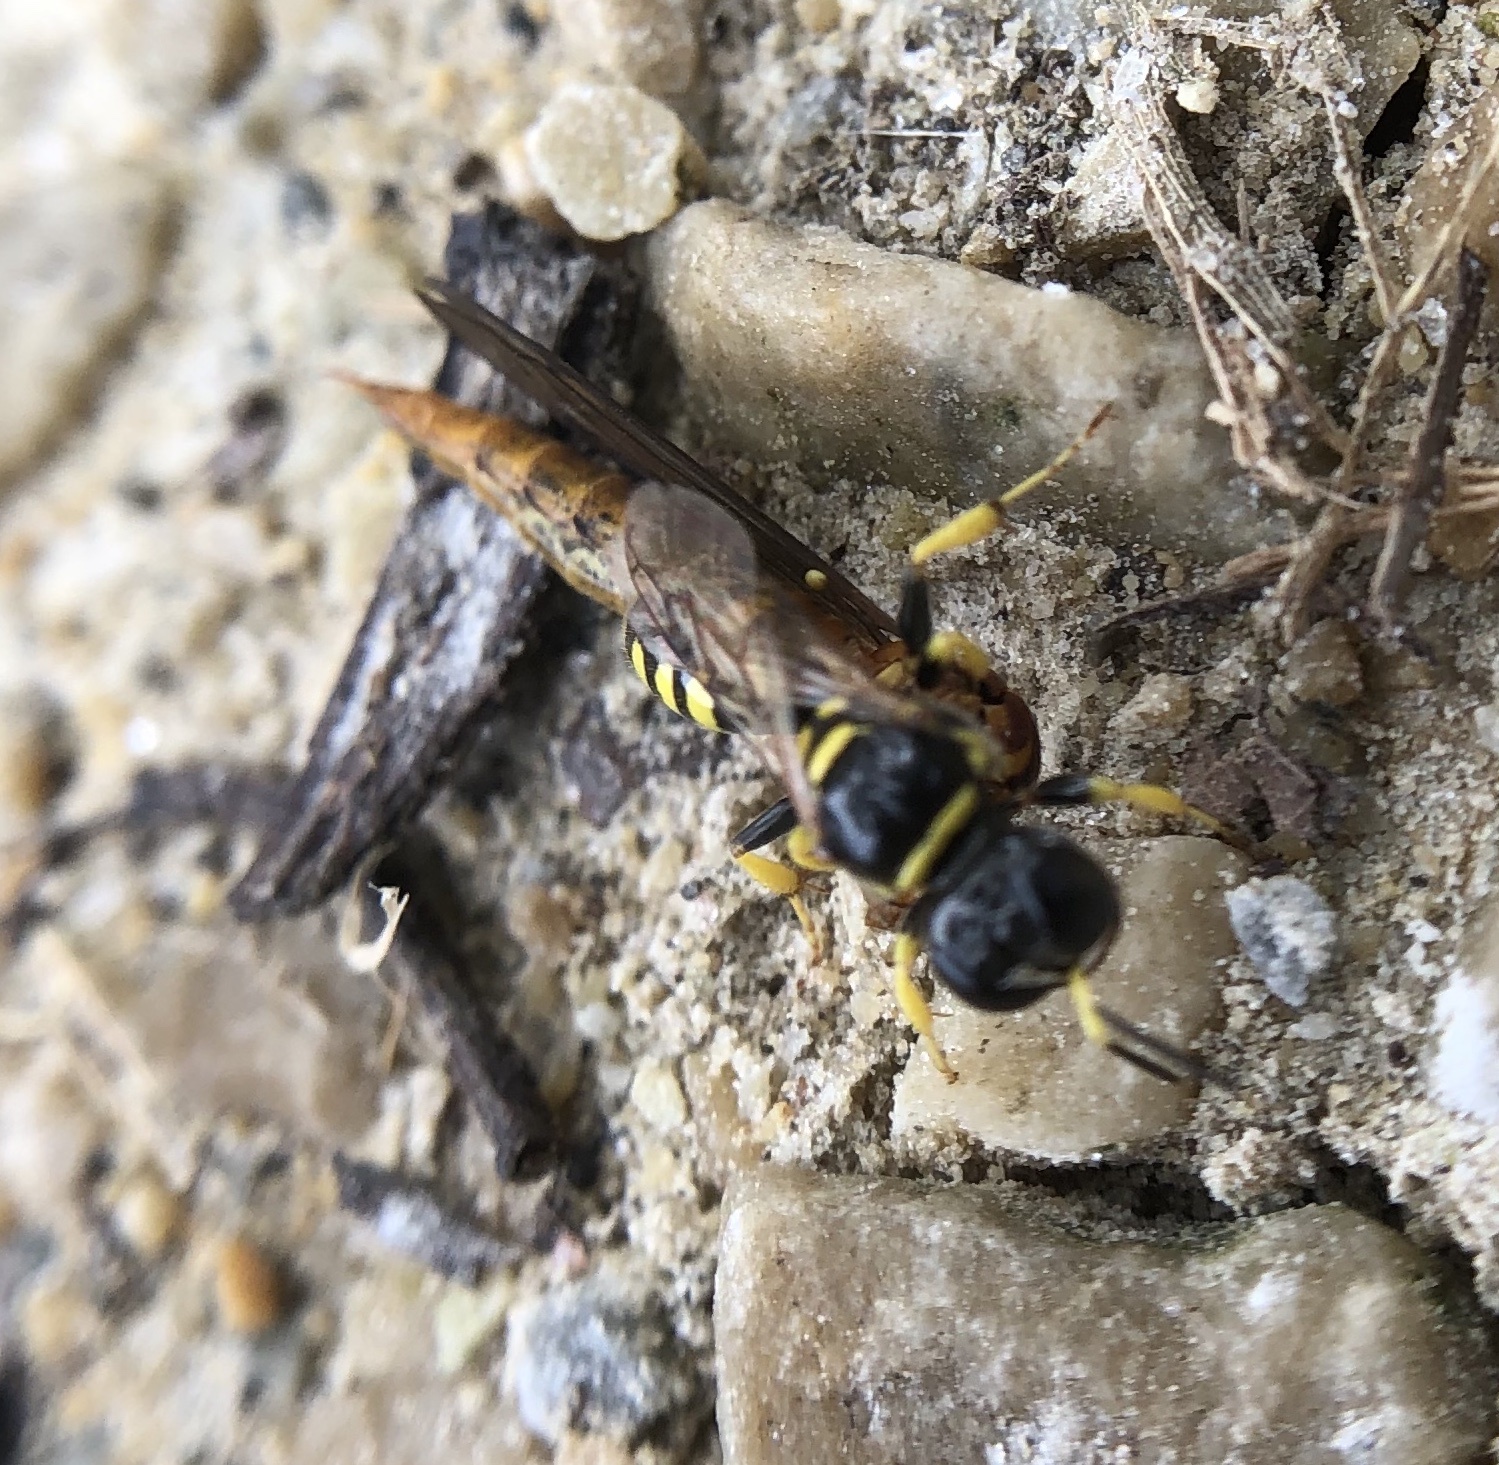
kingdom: Animalia
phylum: Arthropoda
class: Insecta
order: Hymenoptera
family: Crabronidae
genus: Crossocerus
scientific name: Crossocerus nitidiventris
